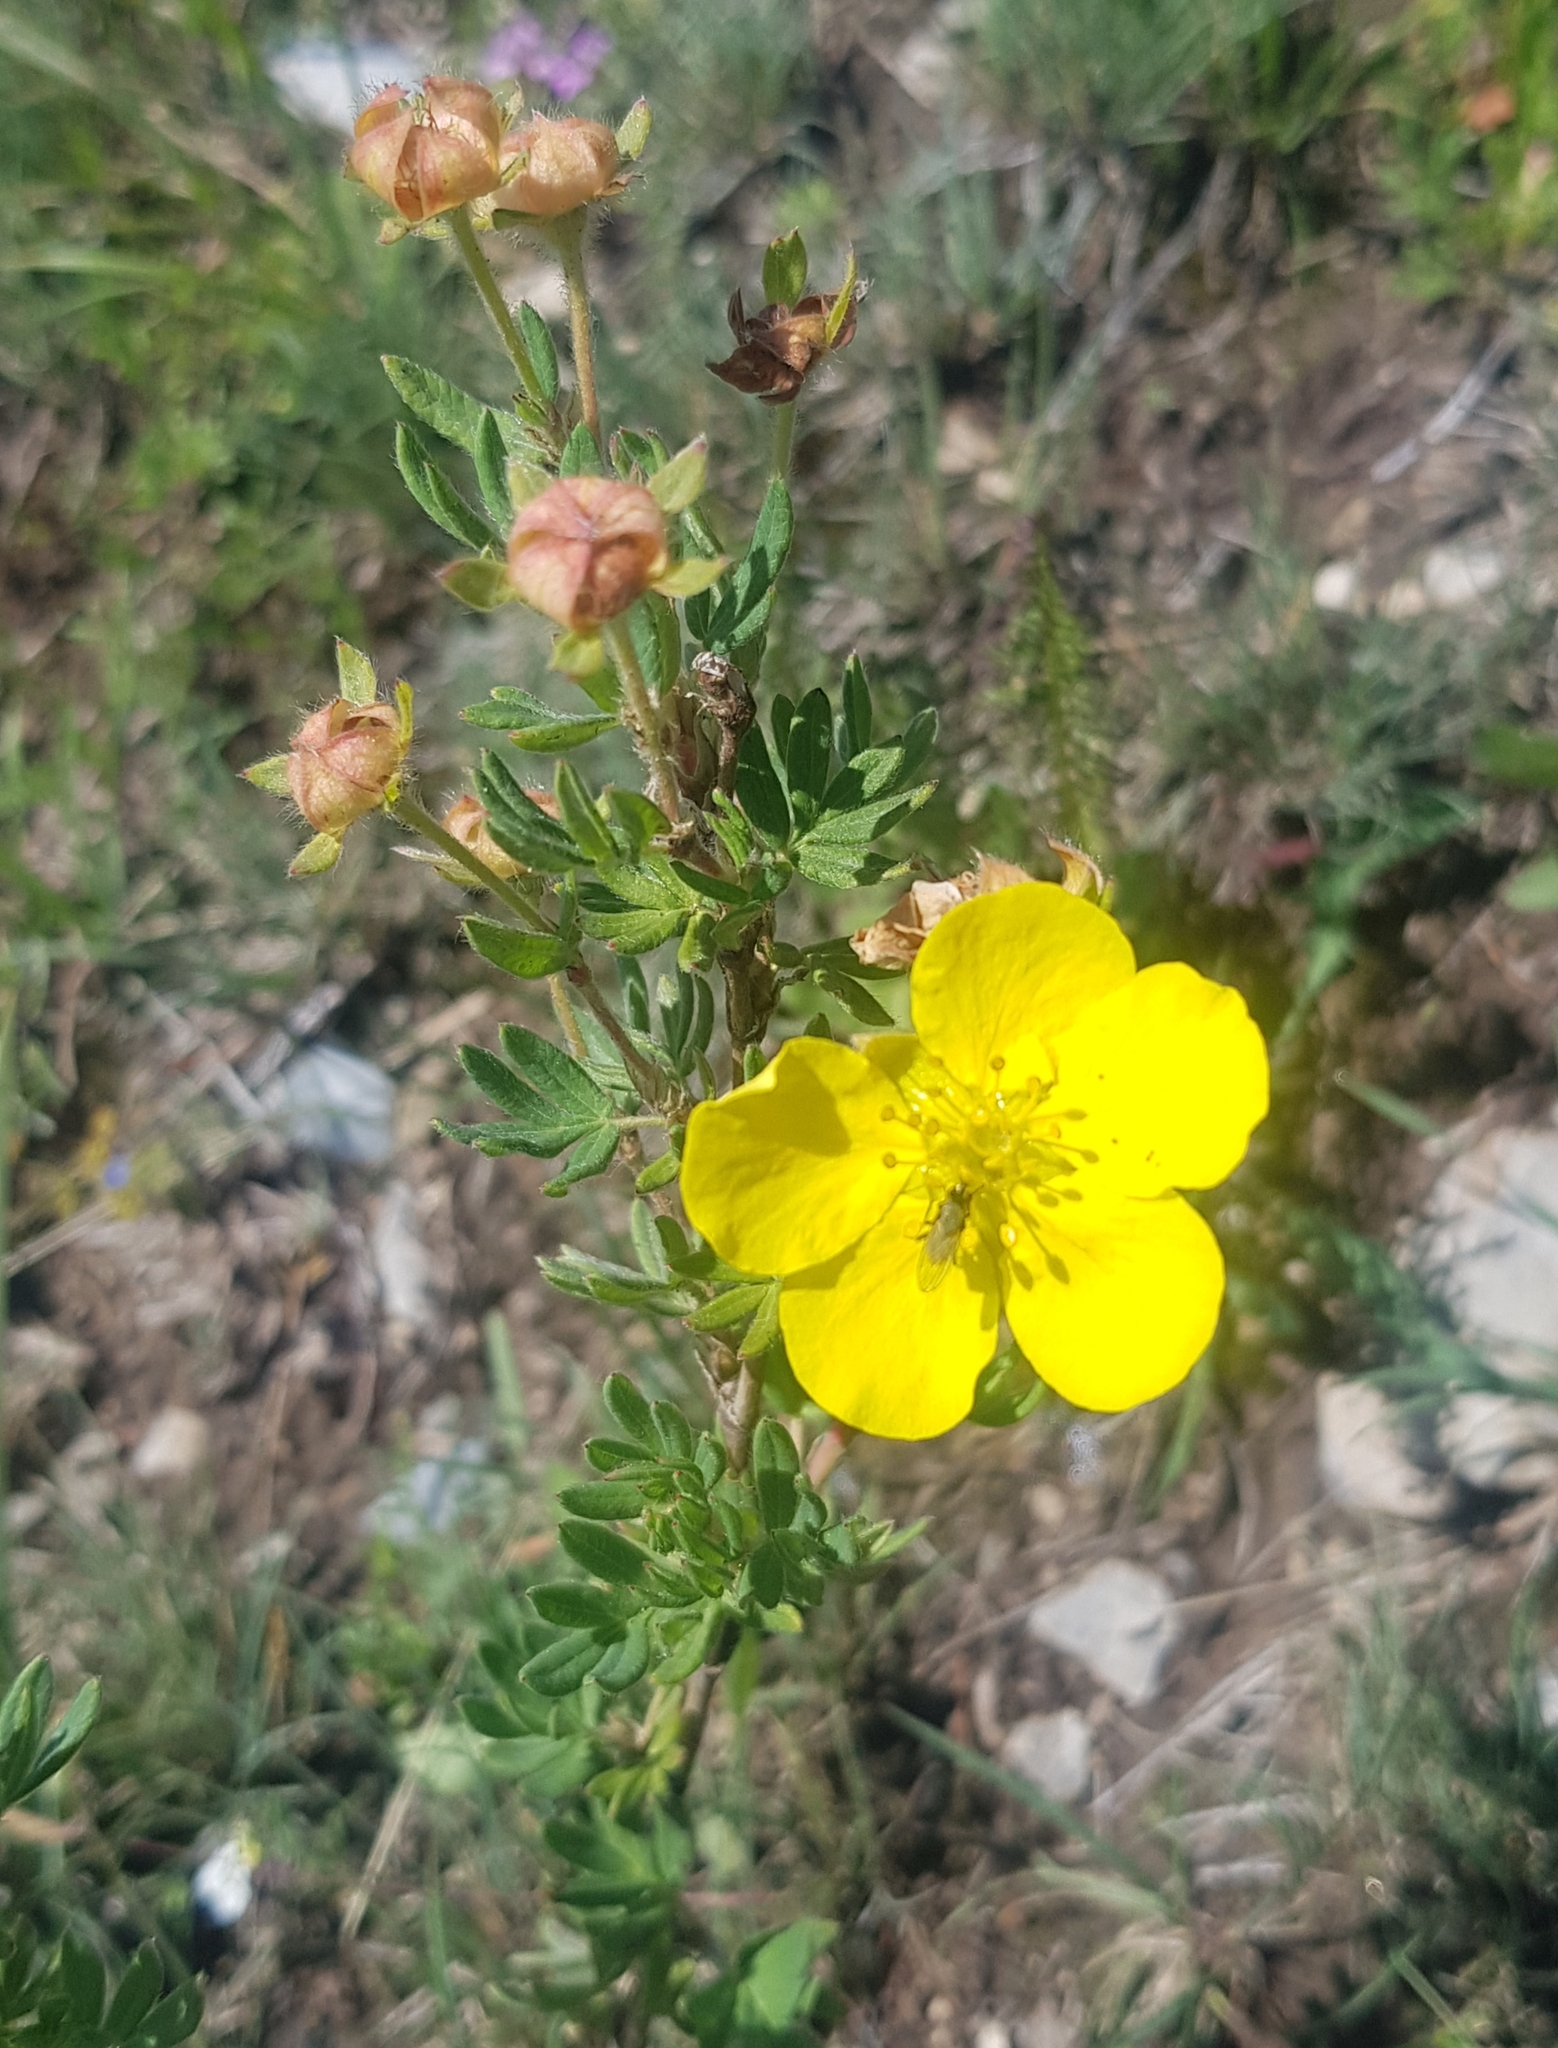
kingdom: Plantae
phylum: Tracheophyta
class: Magnoliopsida
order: Rosales
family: Rosaceae
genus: Dasiphora
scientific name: Dasiphora fruticosa
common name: Shrubby cinquefoil
